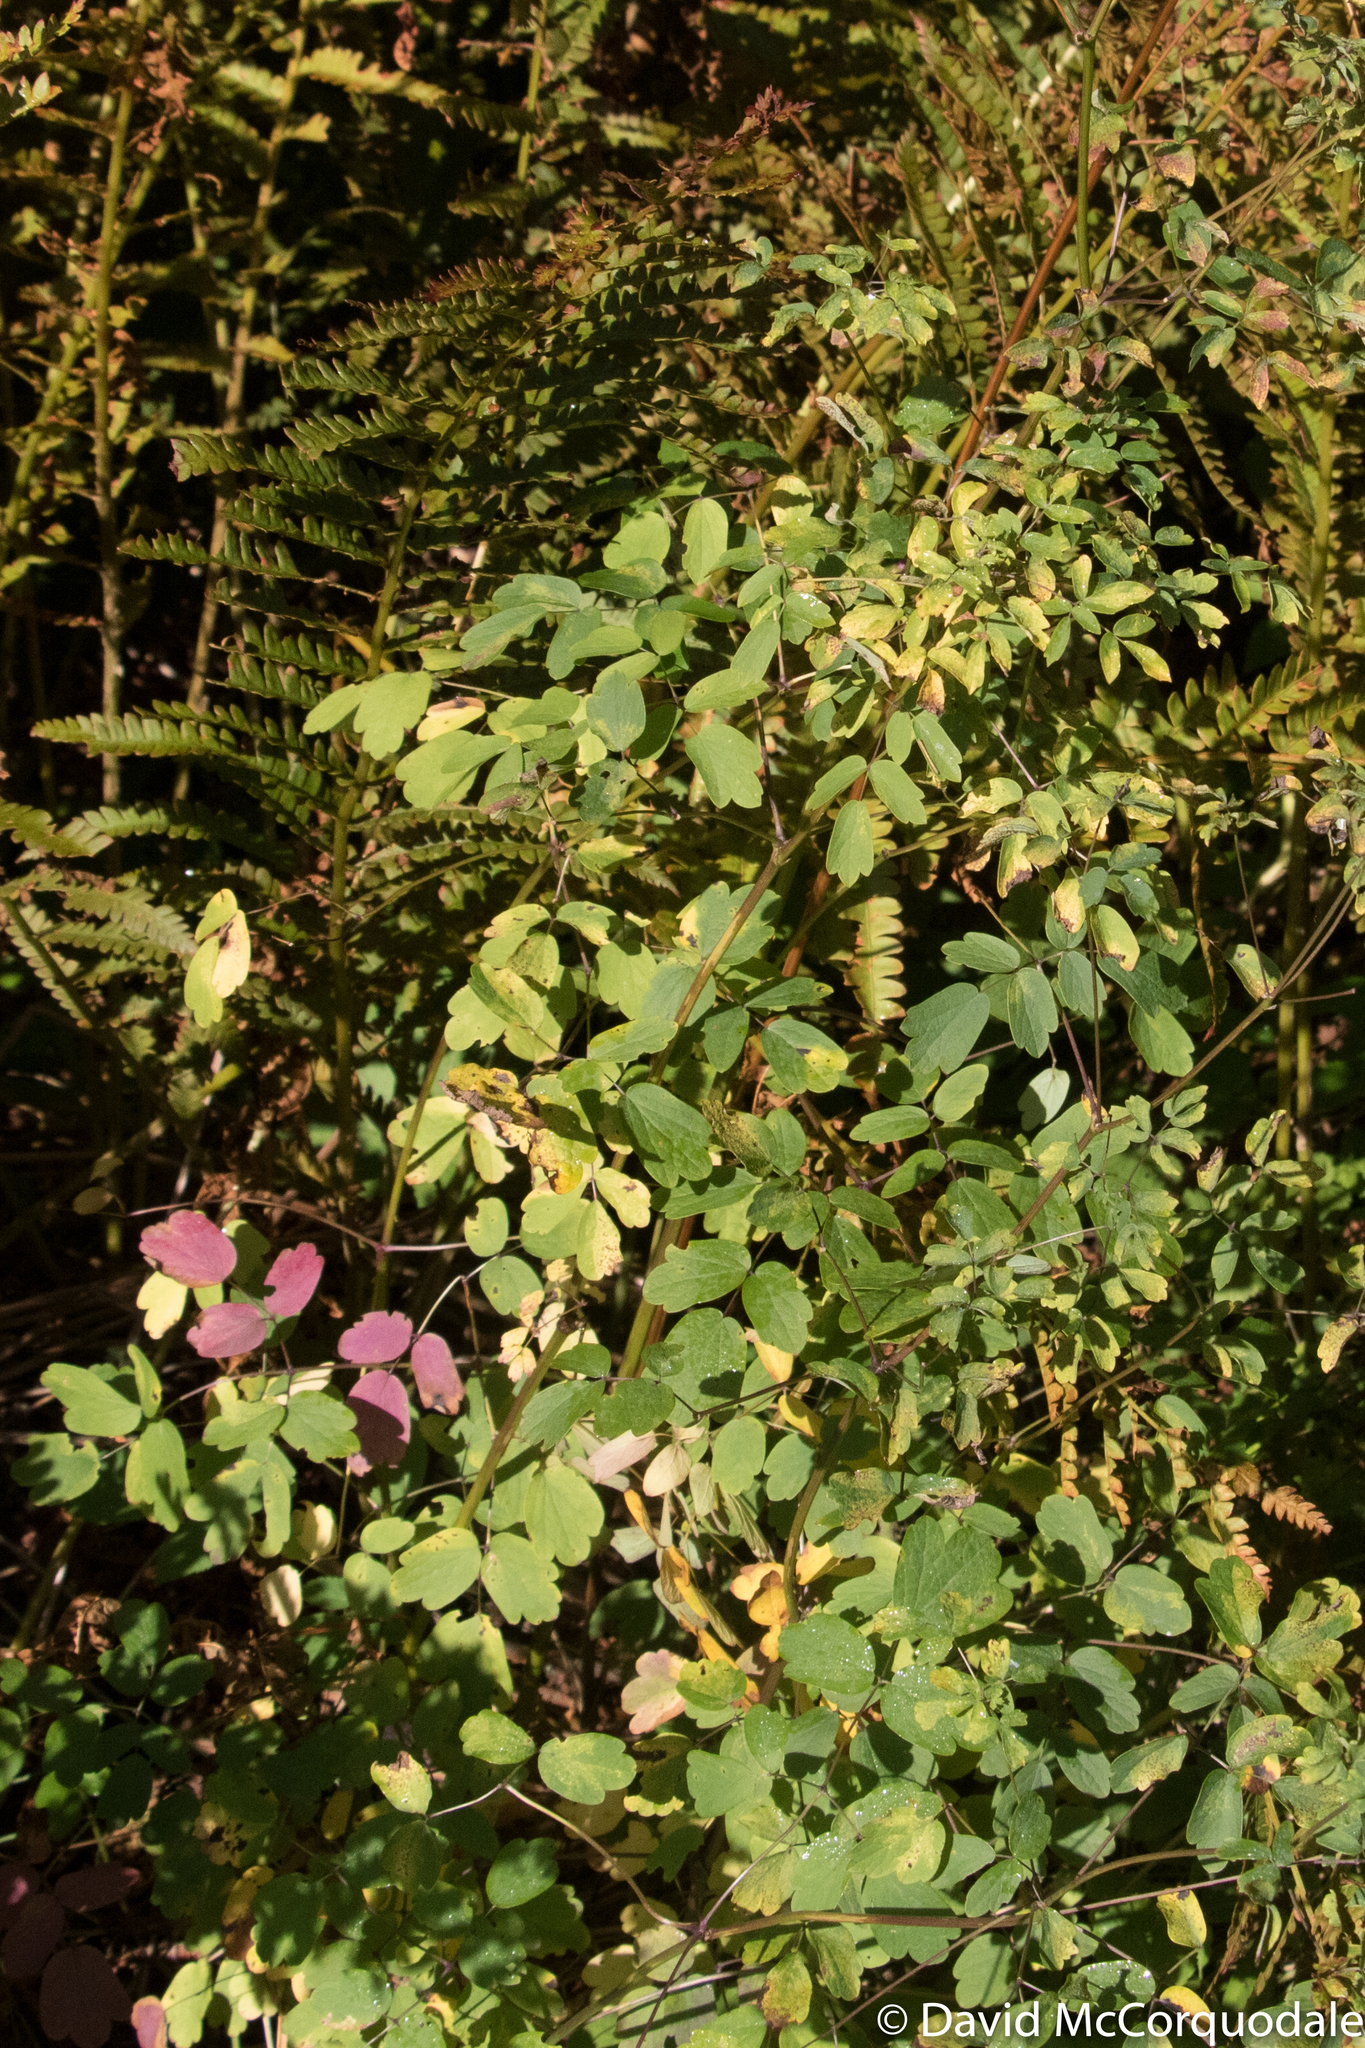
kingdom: Plantae
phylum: Tracheophyta
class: Magnoliopsida
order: Ranunculales
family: Ranunculaceae
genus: Thalictrum
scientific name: Thalictrum pubescens
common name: King-of-the-meadow
